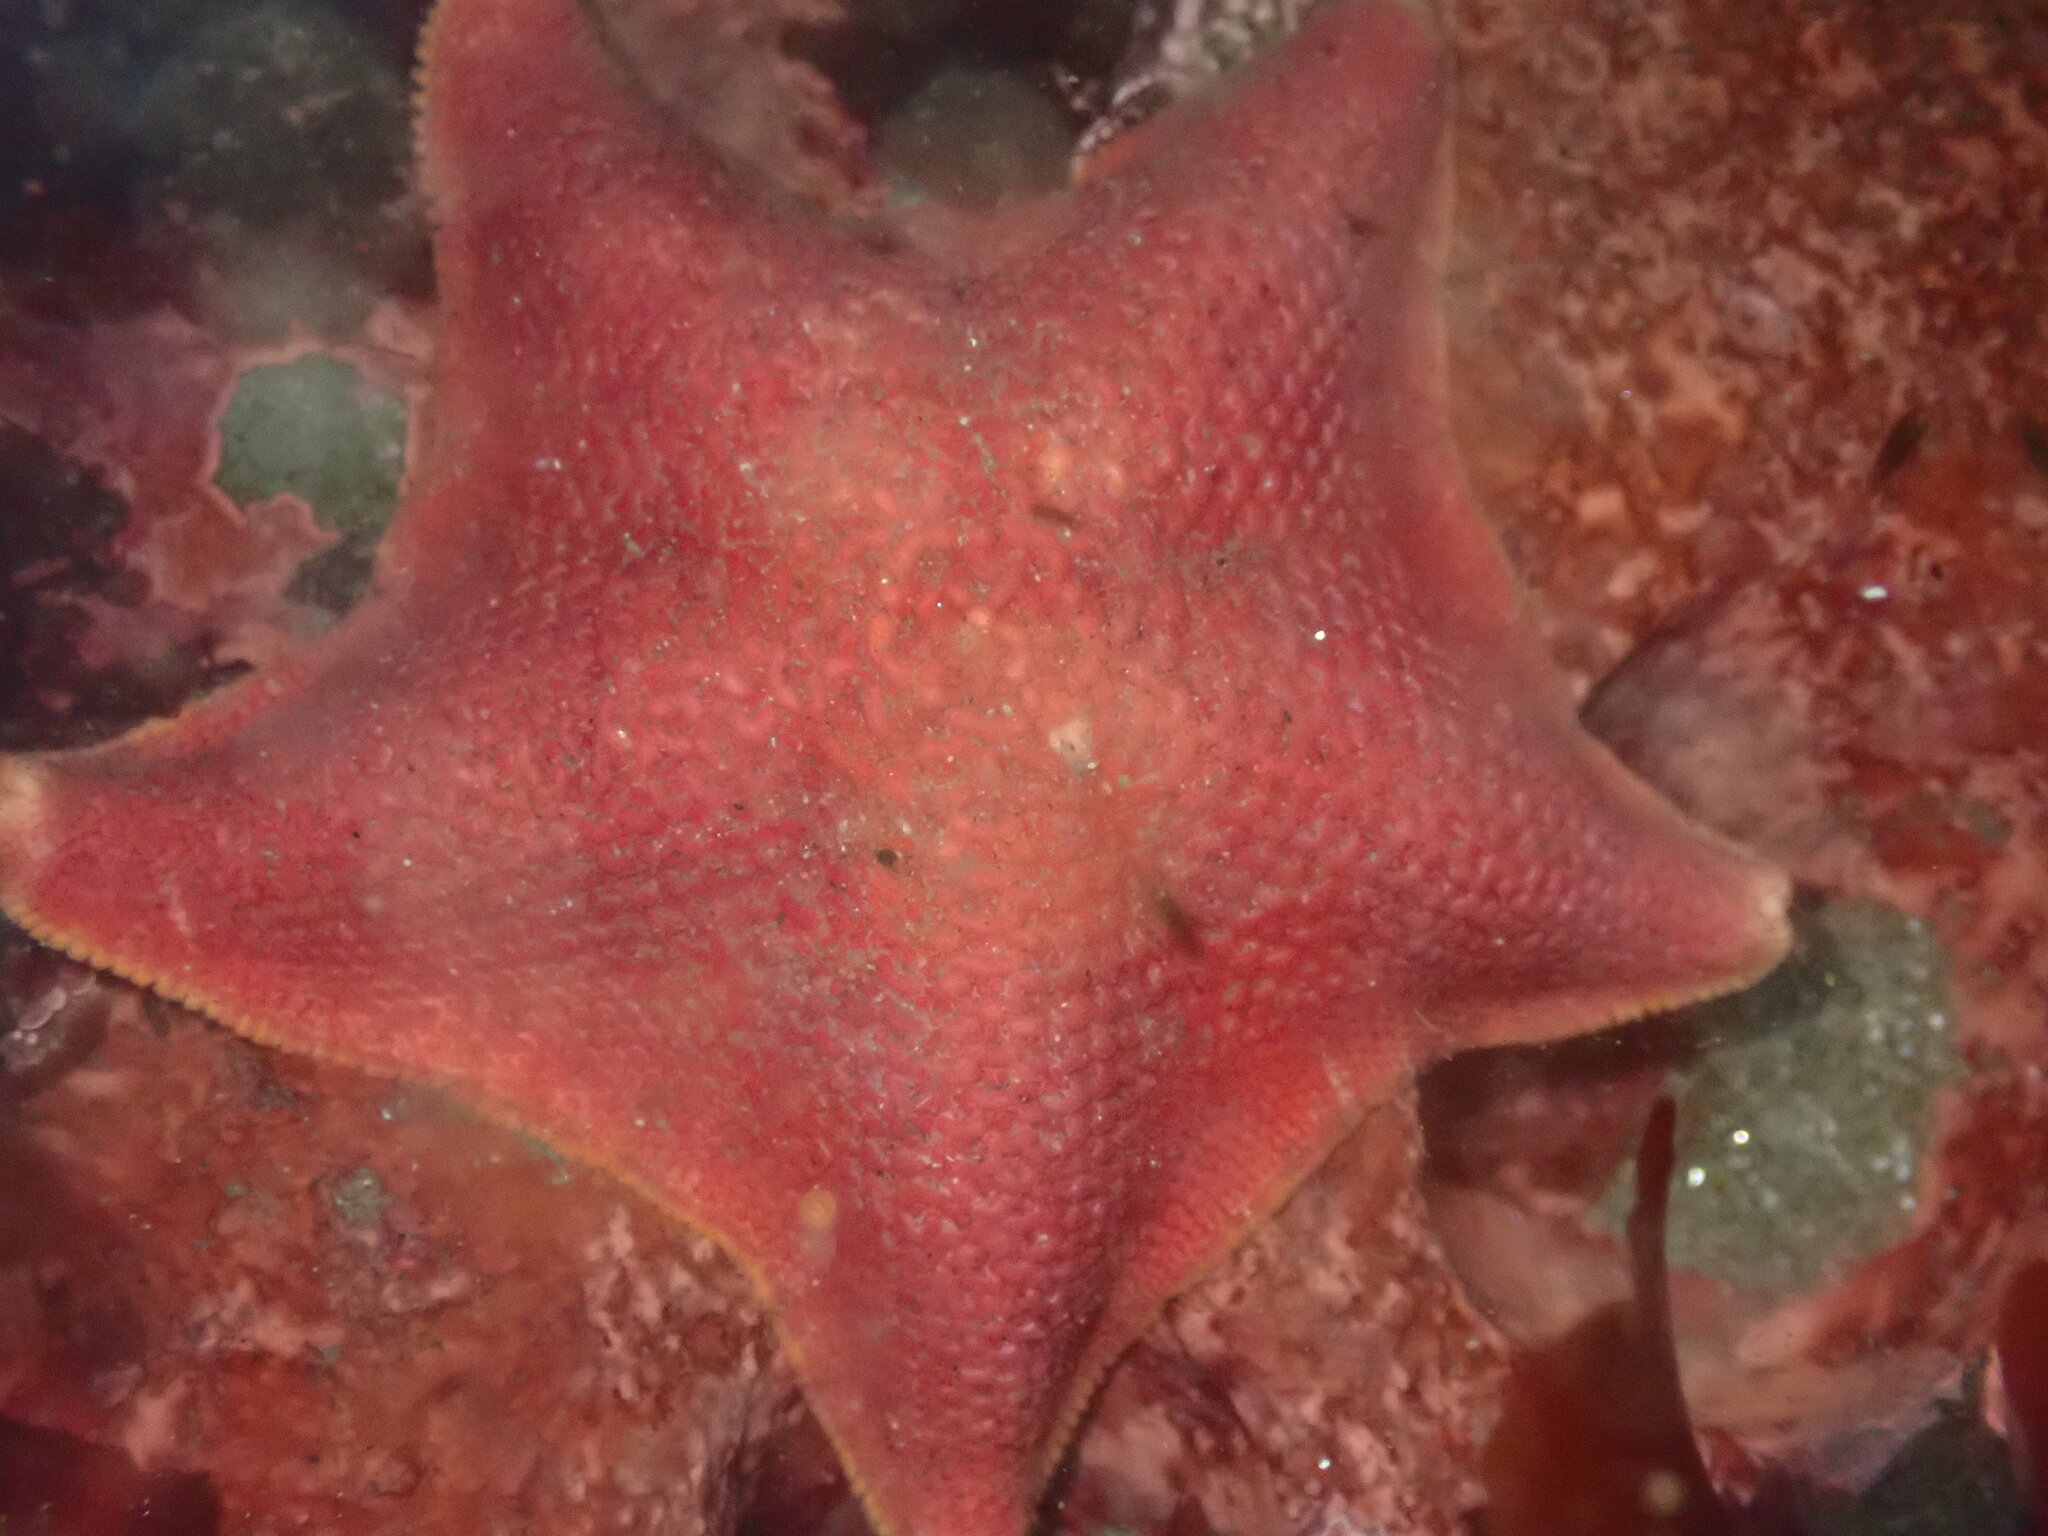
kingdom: Animalia
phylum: Echinodermata
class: Asteroidea
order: Valvatida
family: Asterinidae
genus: Patiria
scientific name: Patiria miniata
